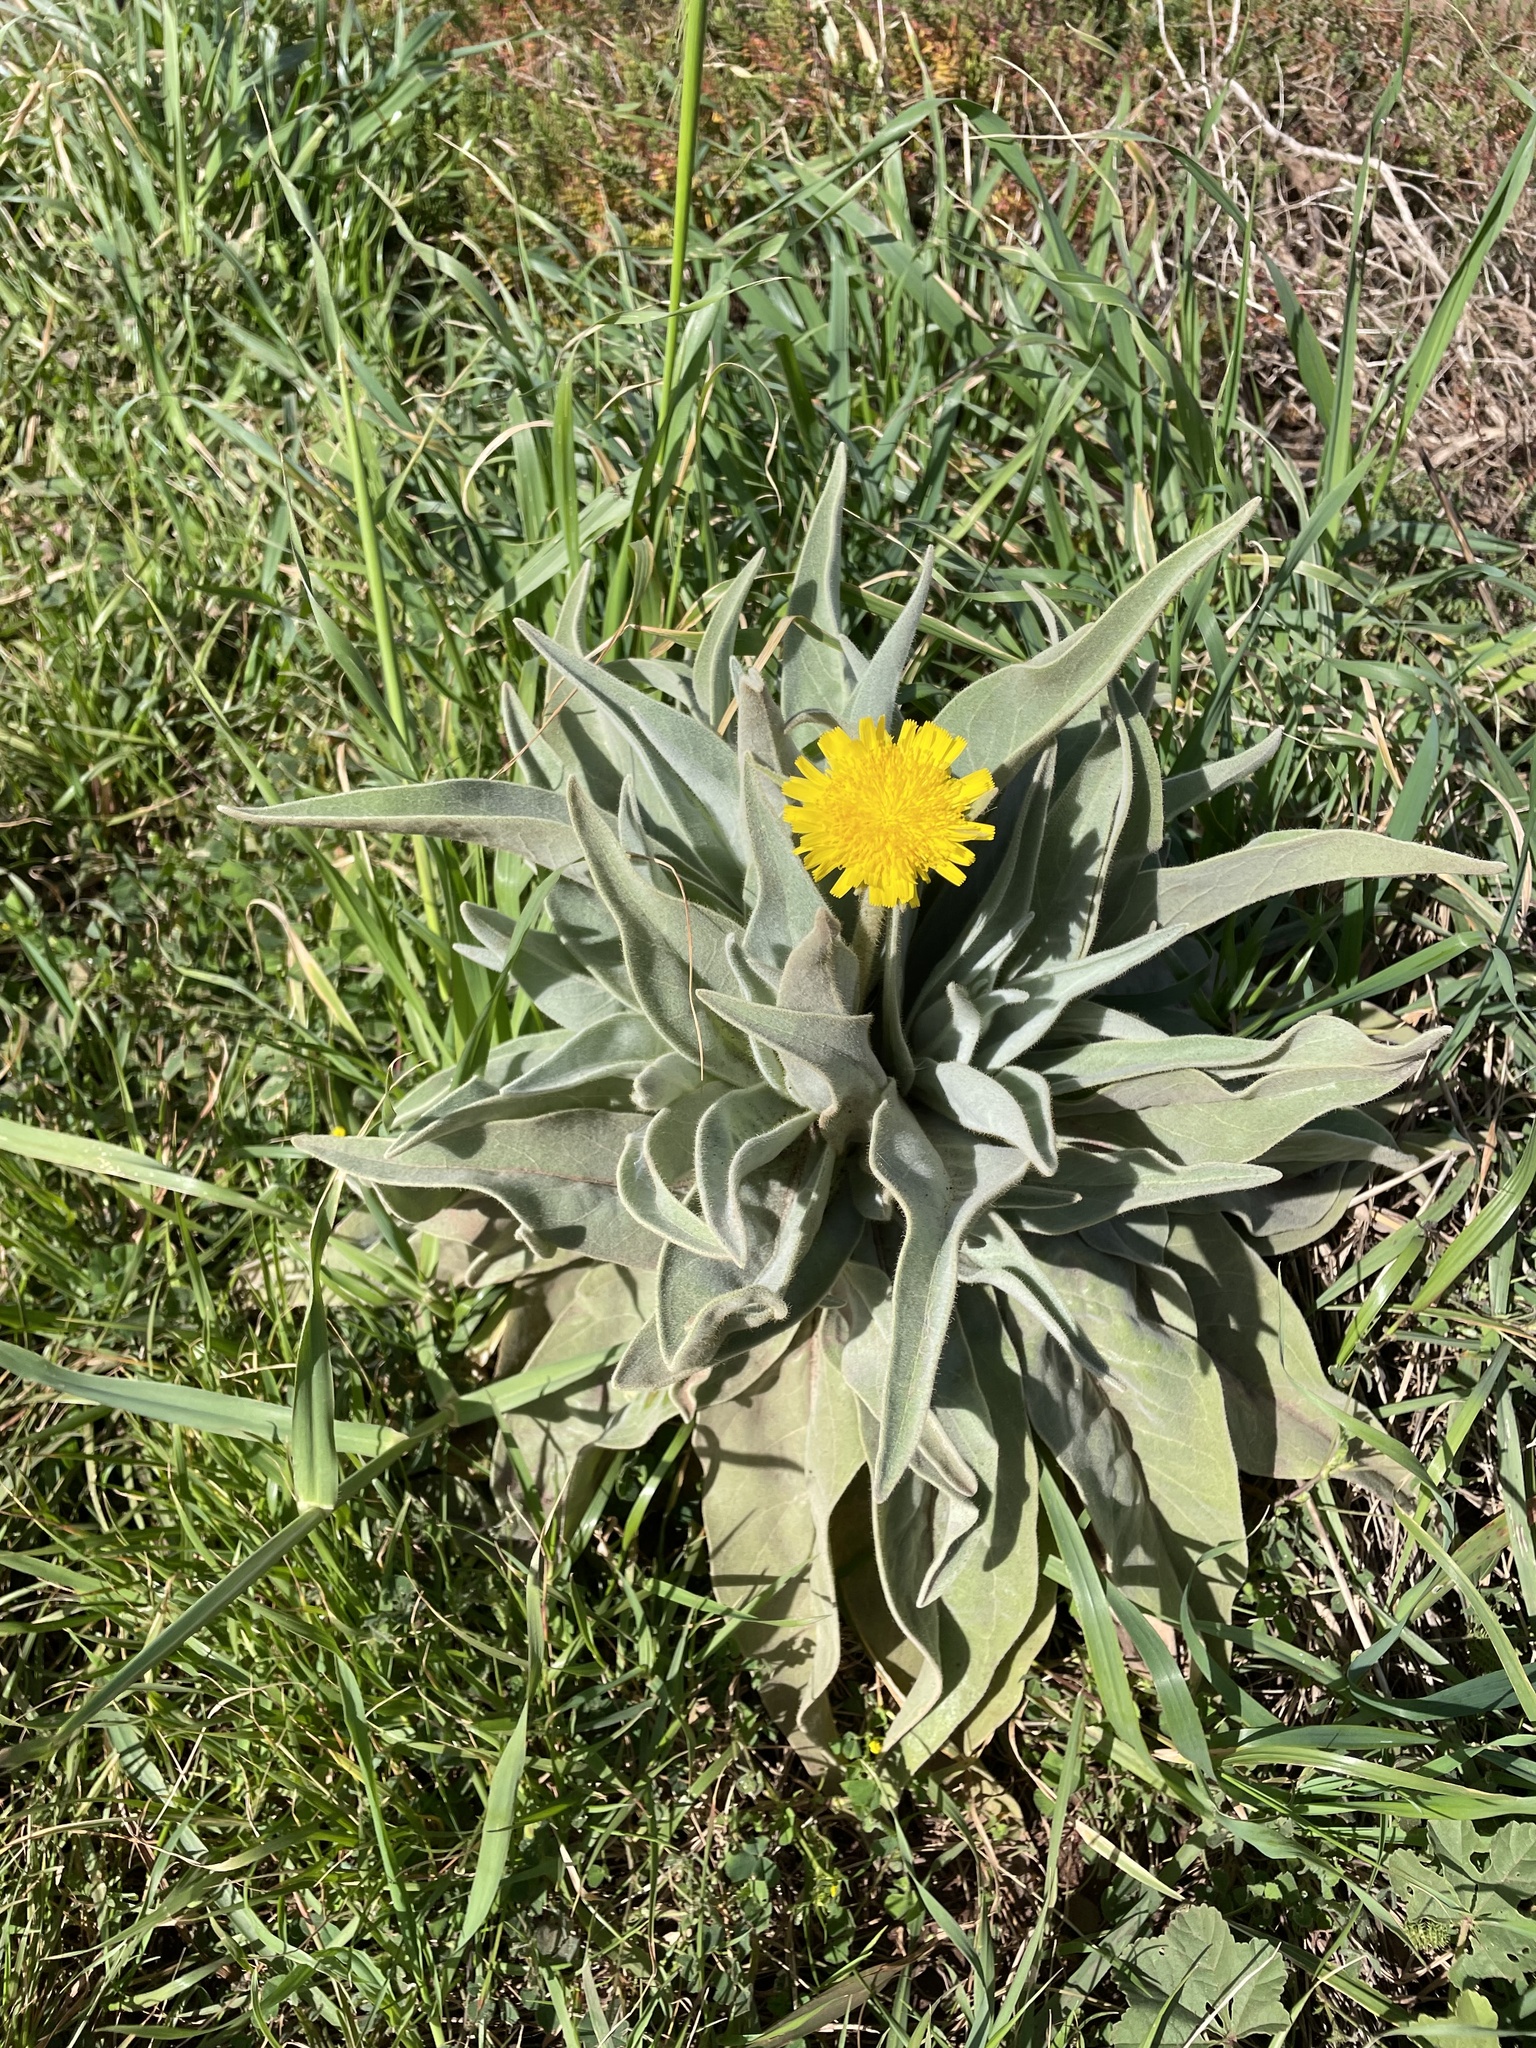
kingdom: Plantae
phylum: Tracheophyta
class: Magnoliopsida
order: Asterales
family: Asteraceae
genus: Andryala
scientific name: Andryala glandulosa
